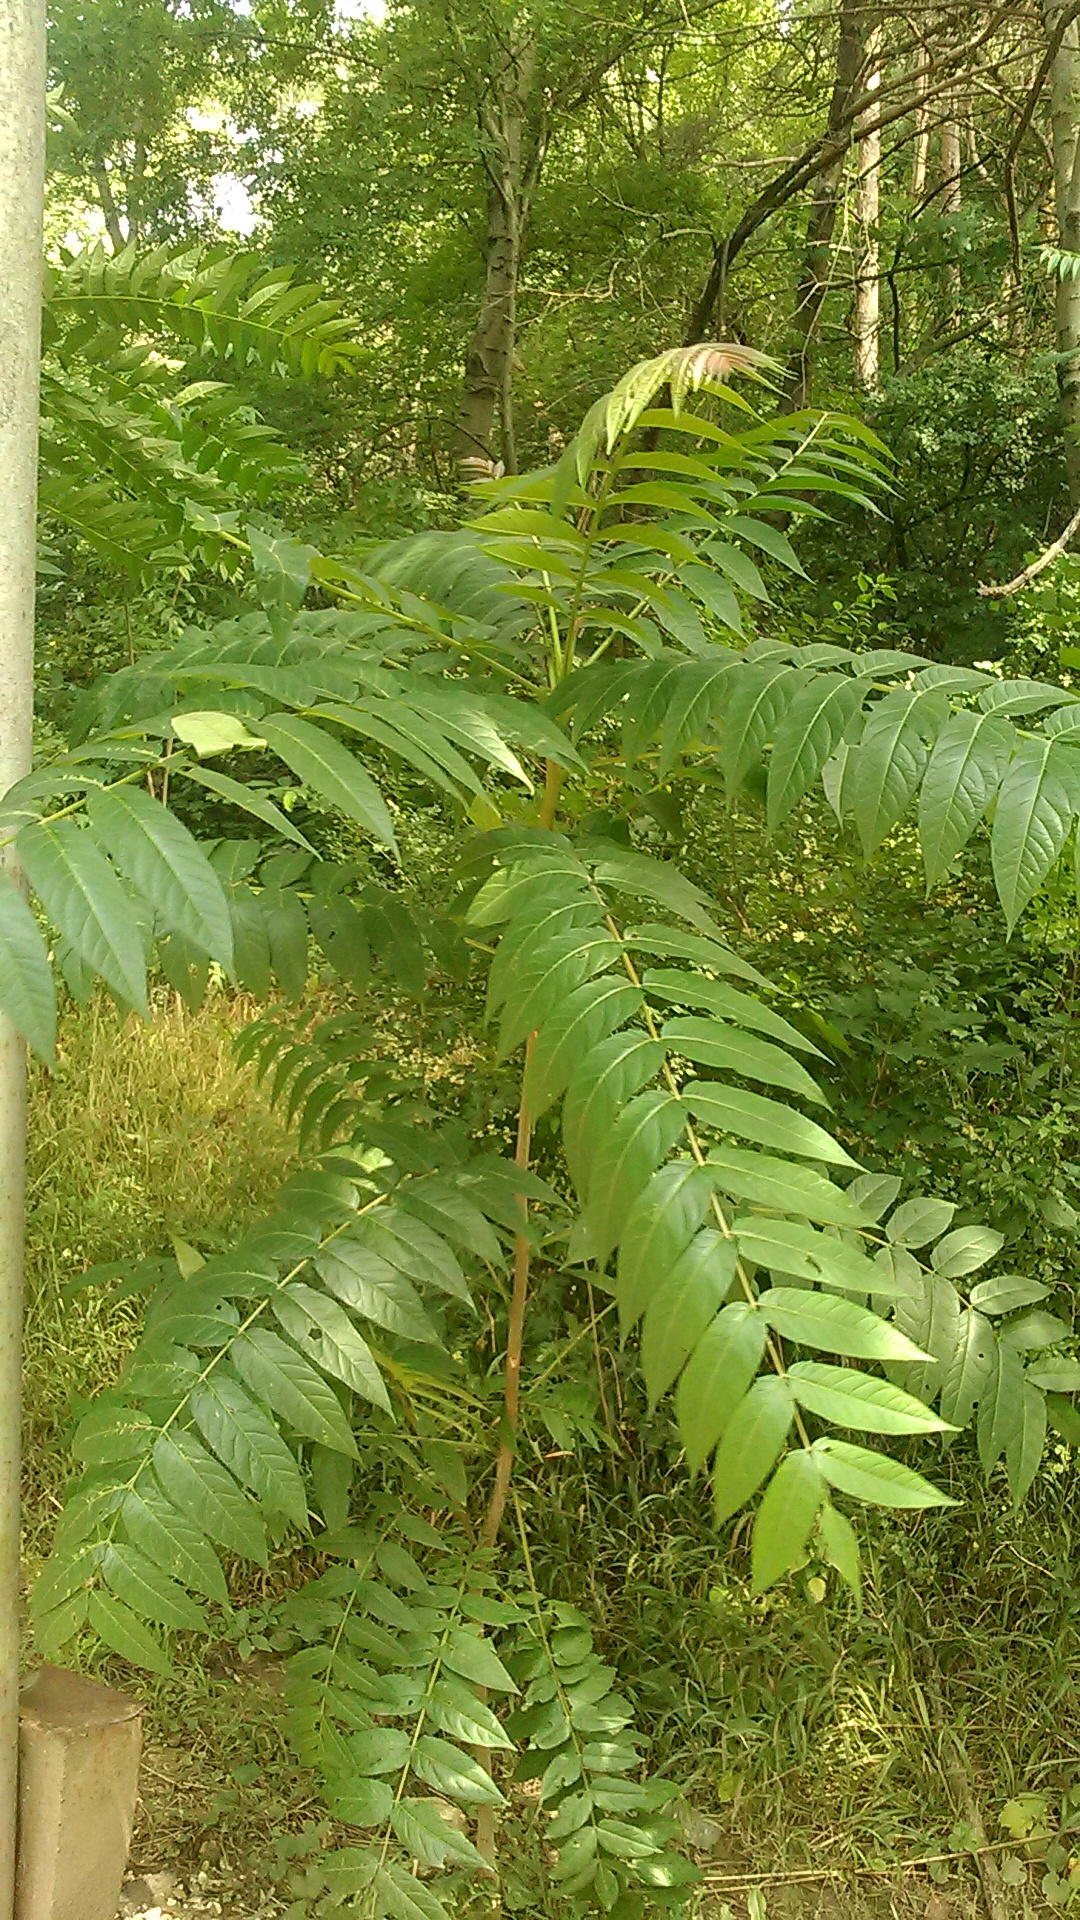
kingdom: Plantae
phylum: Tracheophyta
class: Magnoliopsida
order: Sapindales
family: Simaroubaceae
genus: Ailanthus
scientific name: Ailanthus altissima
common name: Tree-of-heaven
